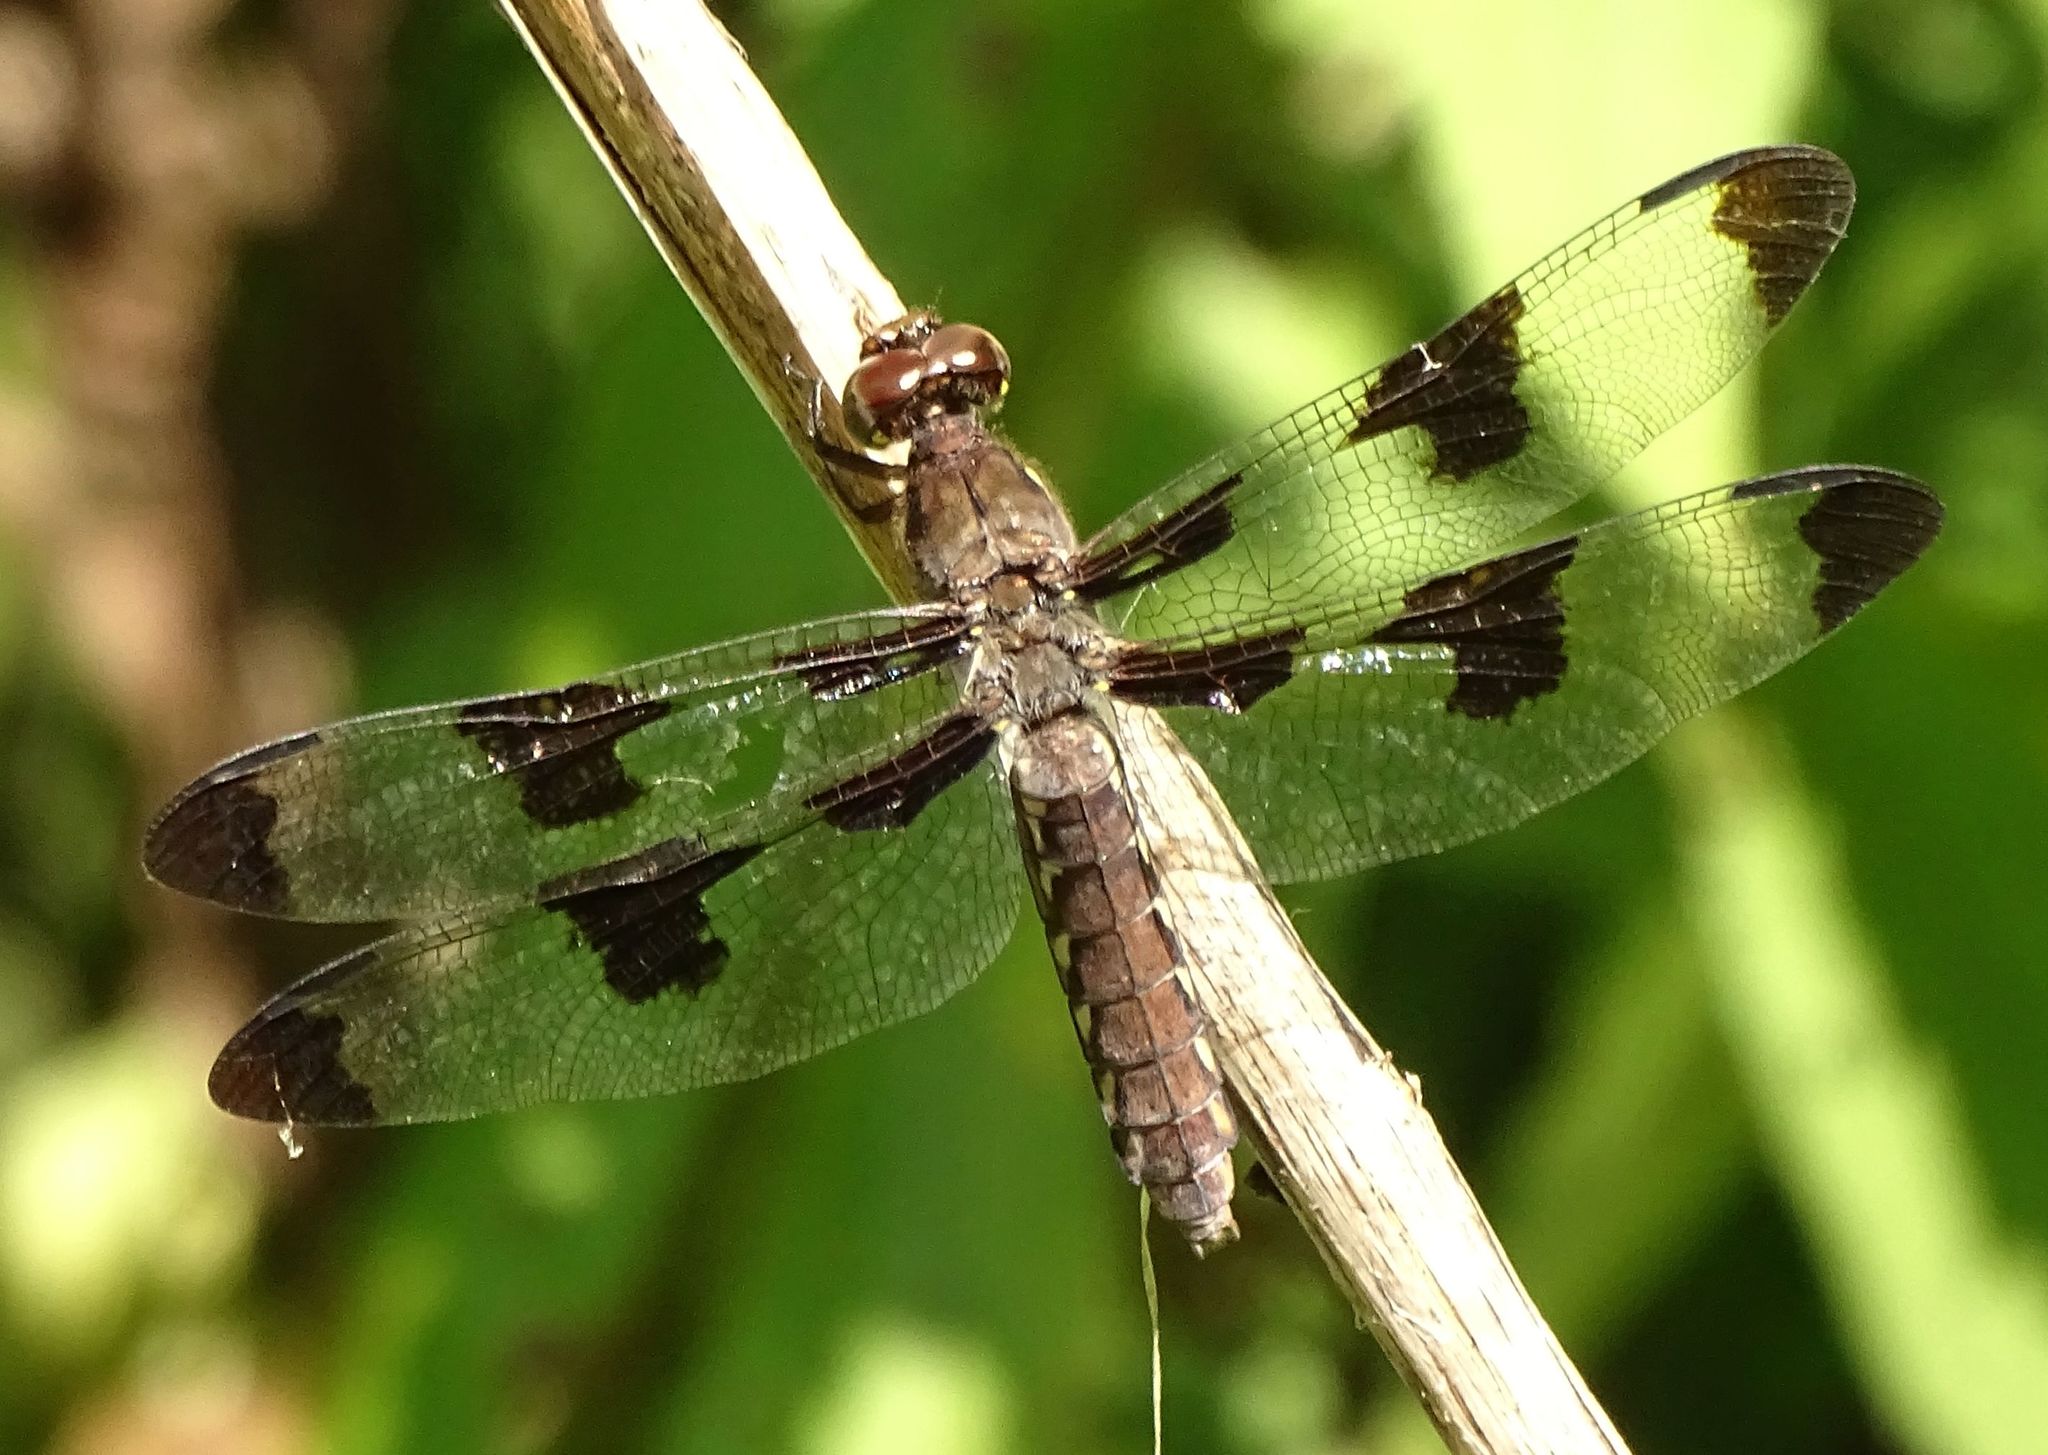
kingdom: Animalia
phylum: Arthropoda
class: Insecta
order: Odonata
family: Libellulidae
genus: Plathemis
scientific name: Plathemis lydia
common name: Common whitetail
